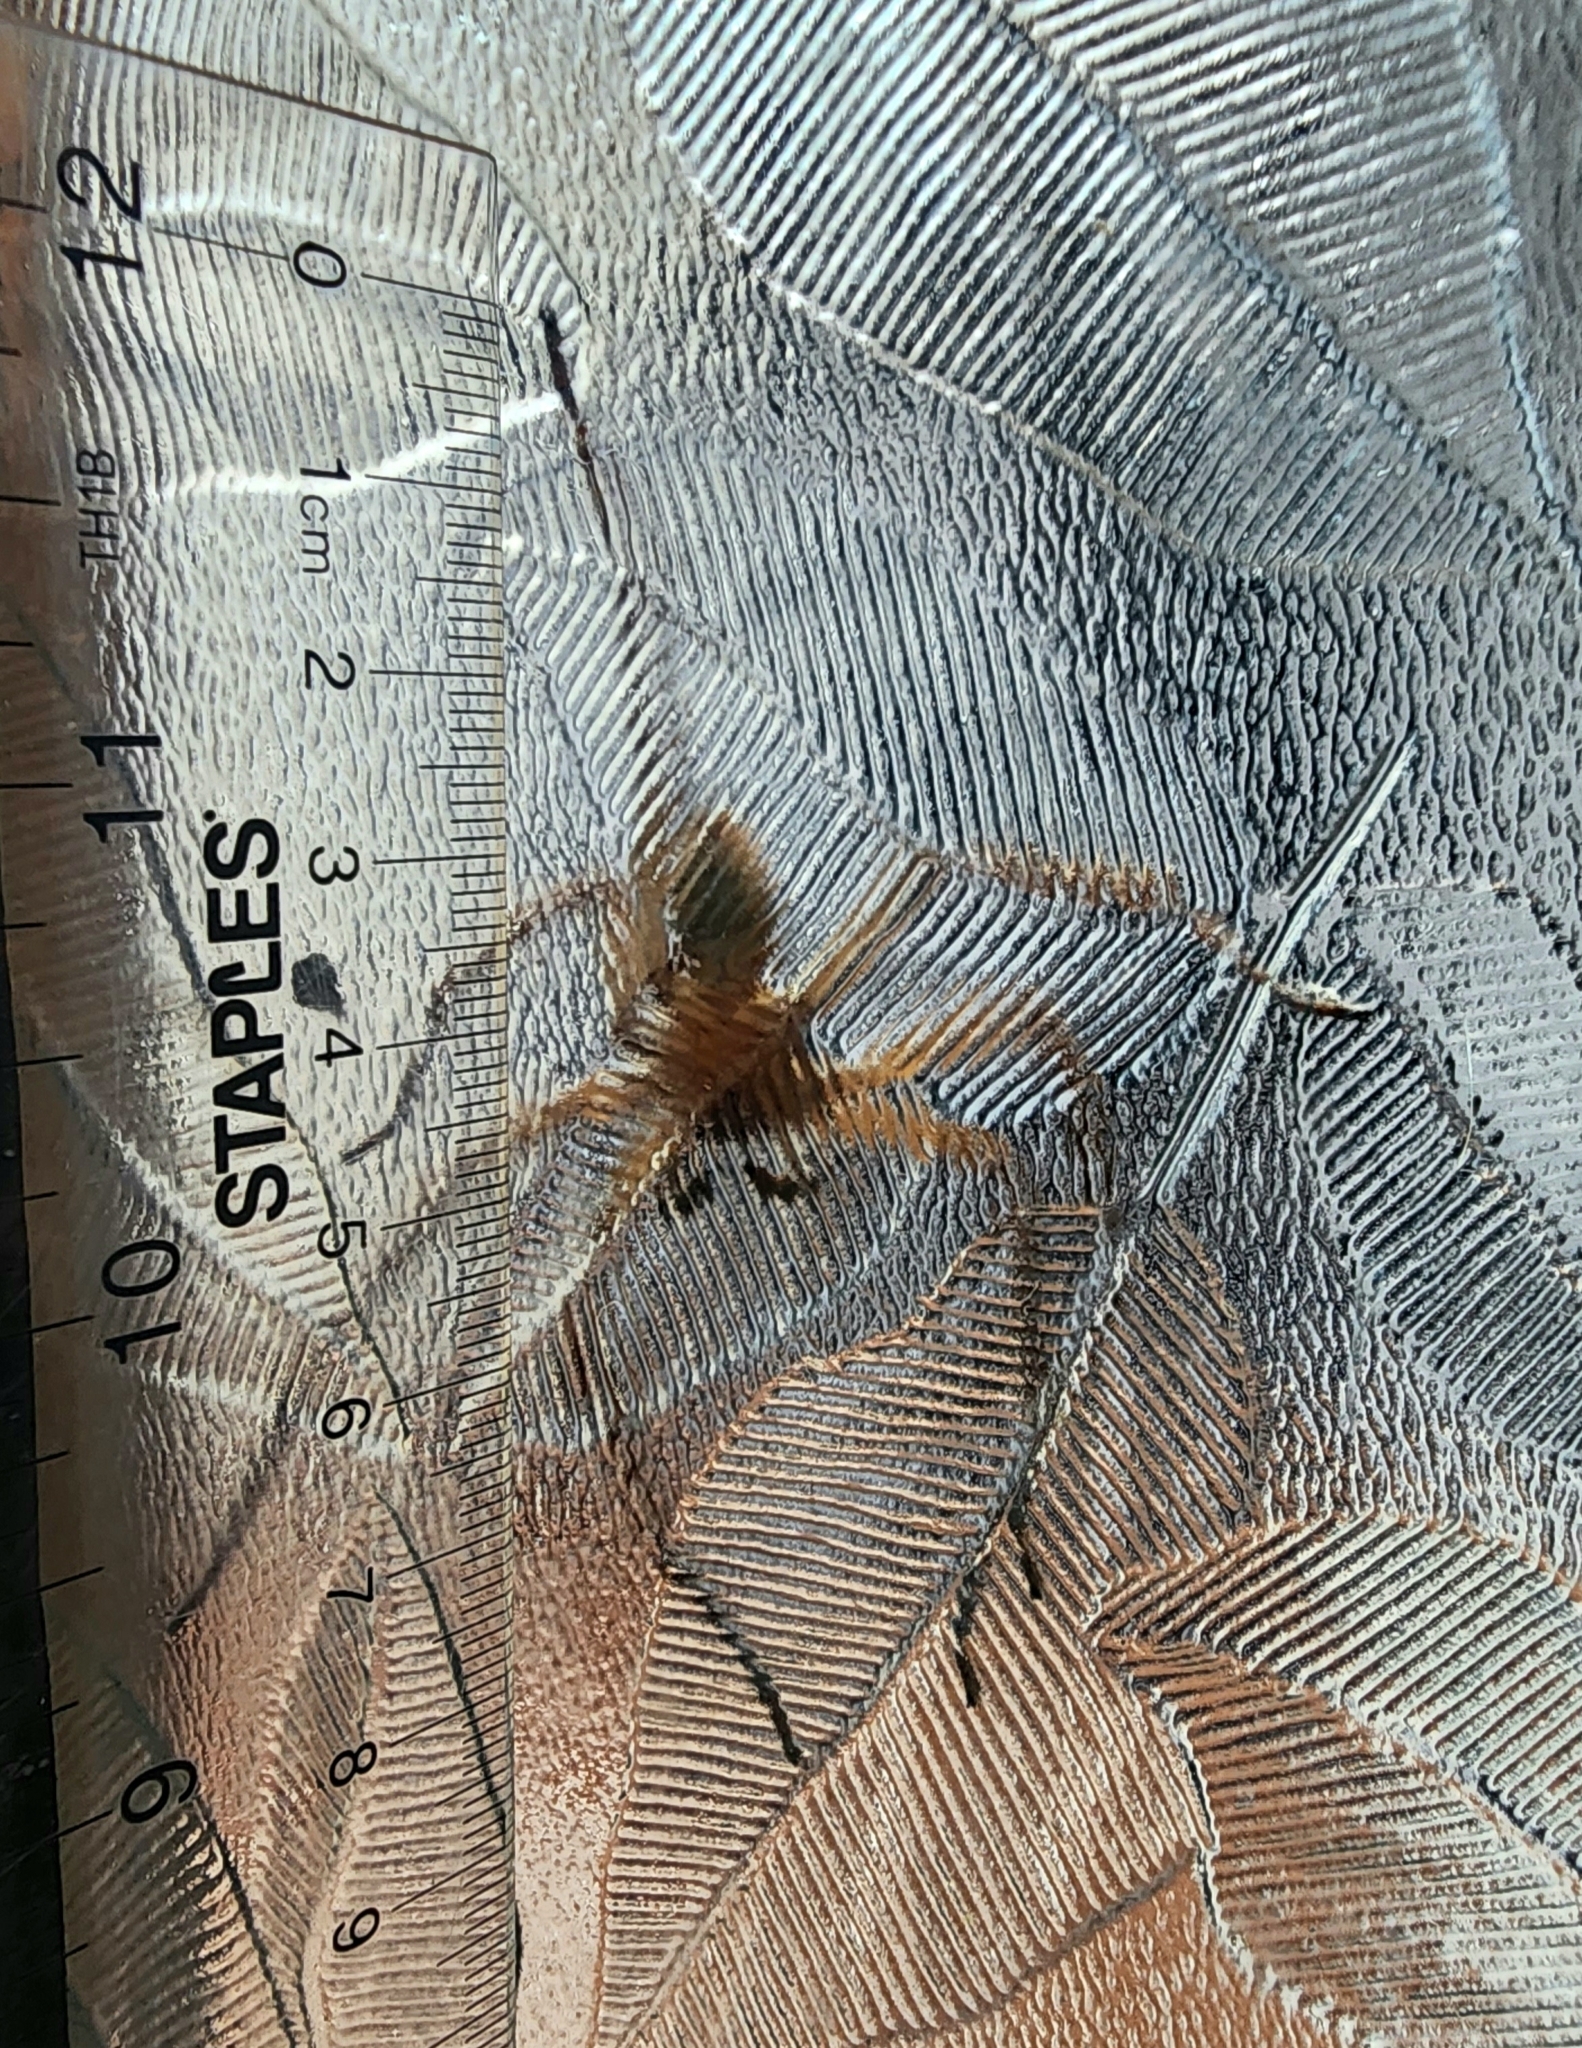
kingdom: Animalia
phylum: Arthropoda
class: Arachnida
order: Araneae
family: Sparassidae
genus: Heteropoda
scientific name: Heteropoda venatoria
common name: Huntsman spider
